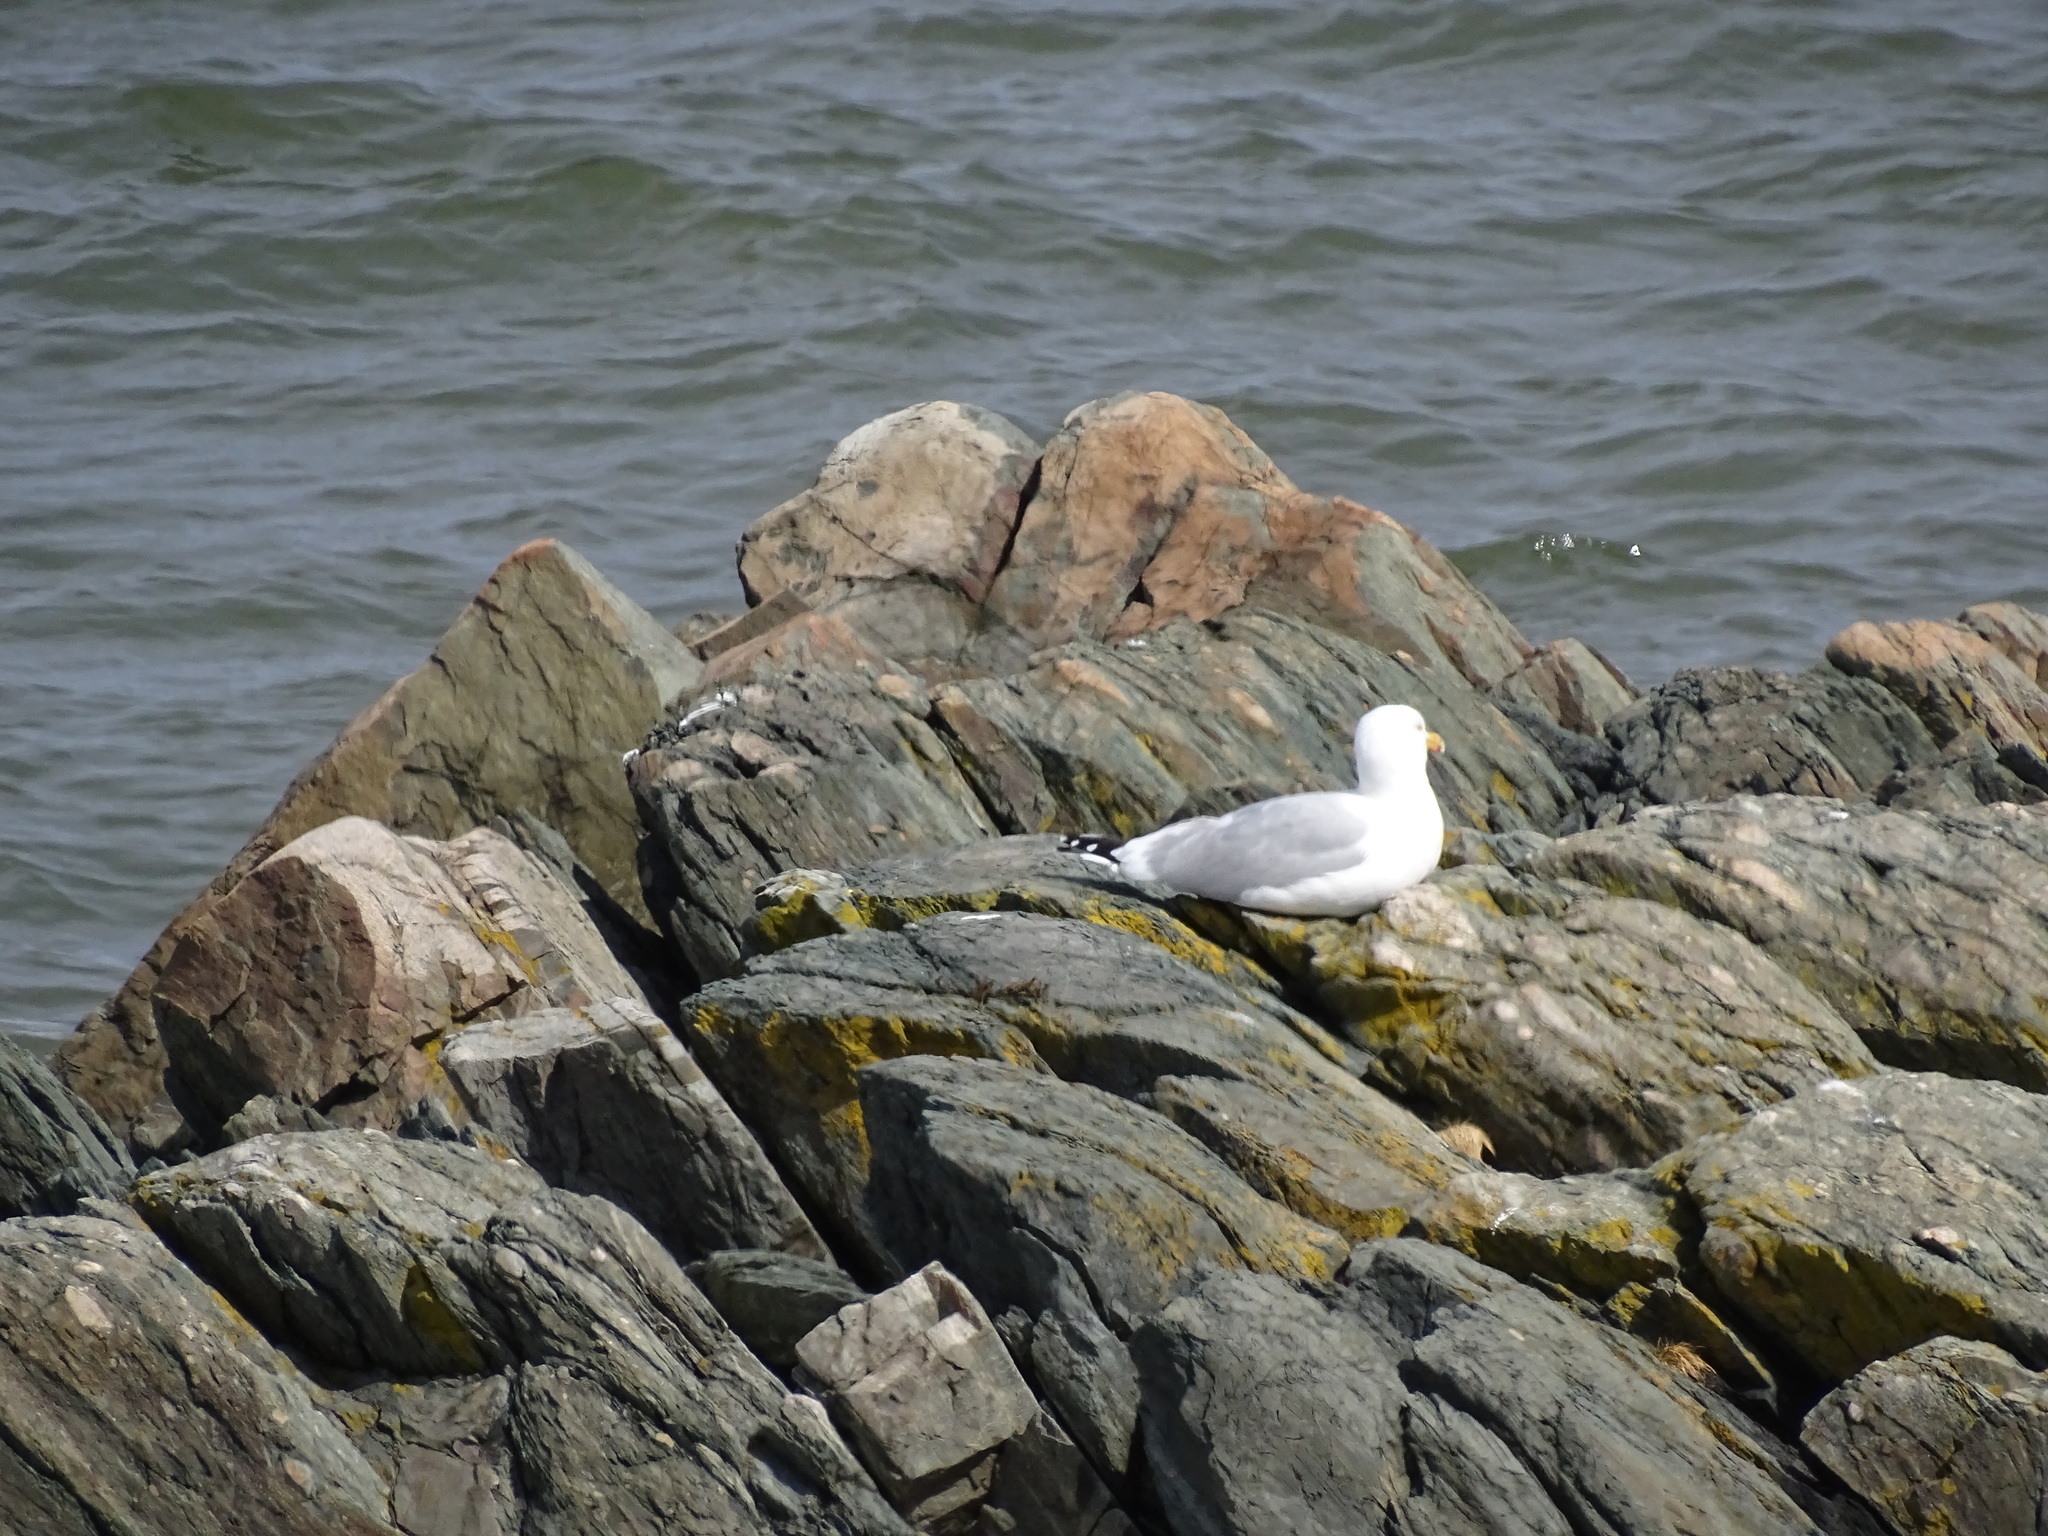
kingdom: Animalia
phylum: Chordata
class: Aves
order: Charadriiformes
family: Laridae
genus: Larus
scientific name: Larus argentatus
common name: Herring gull
